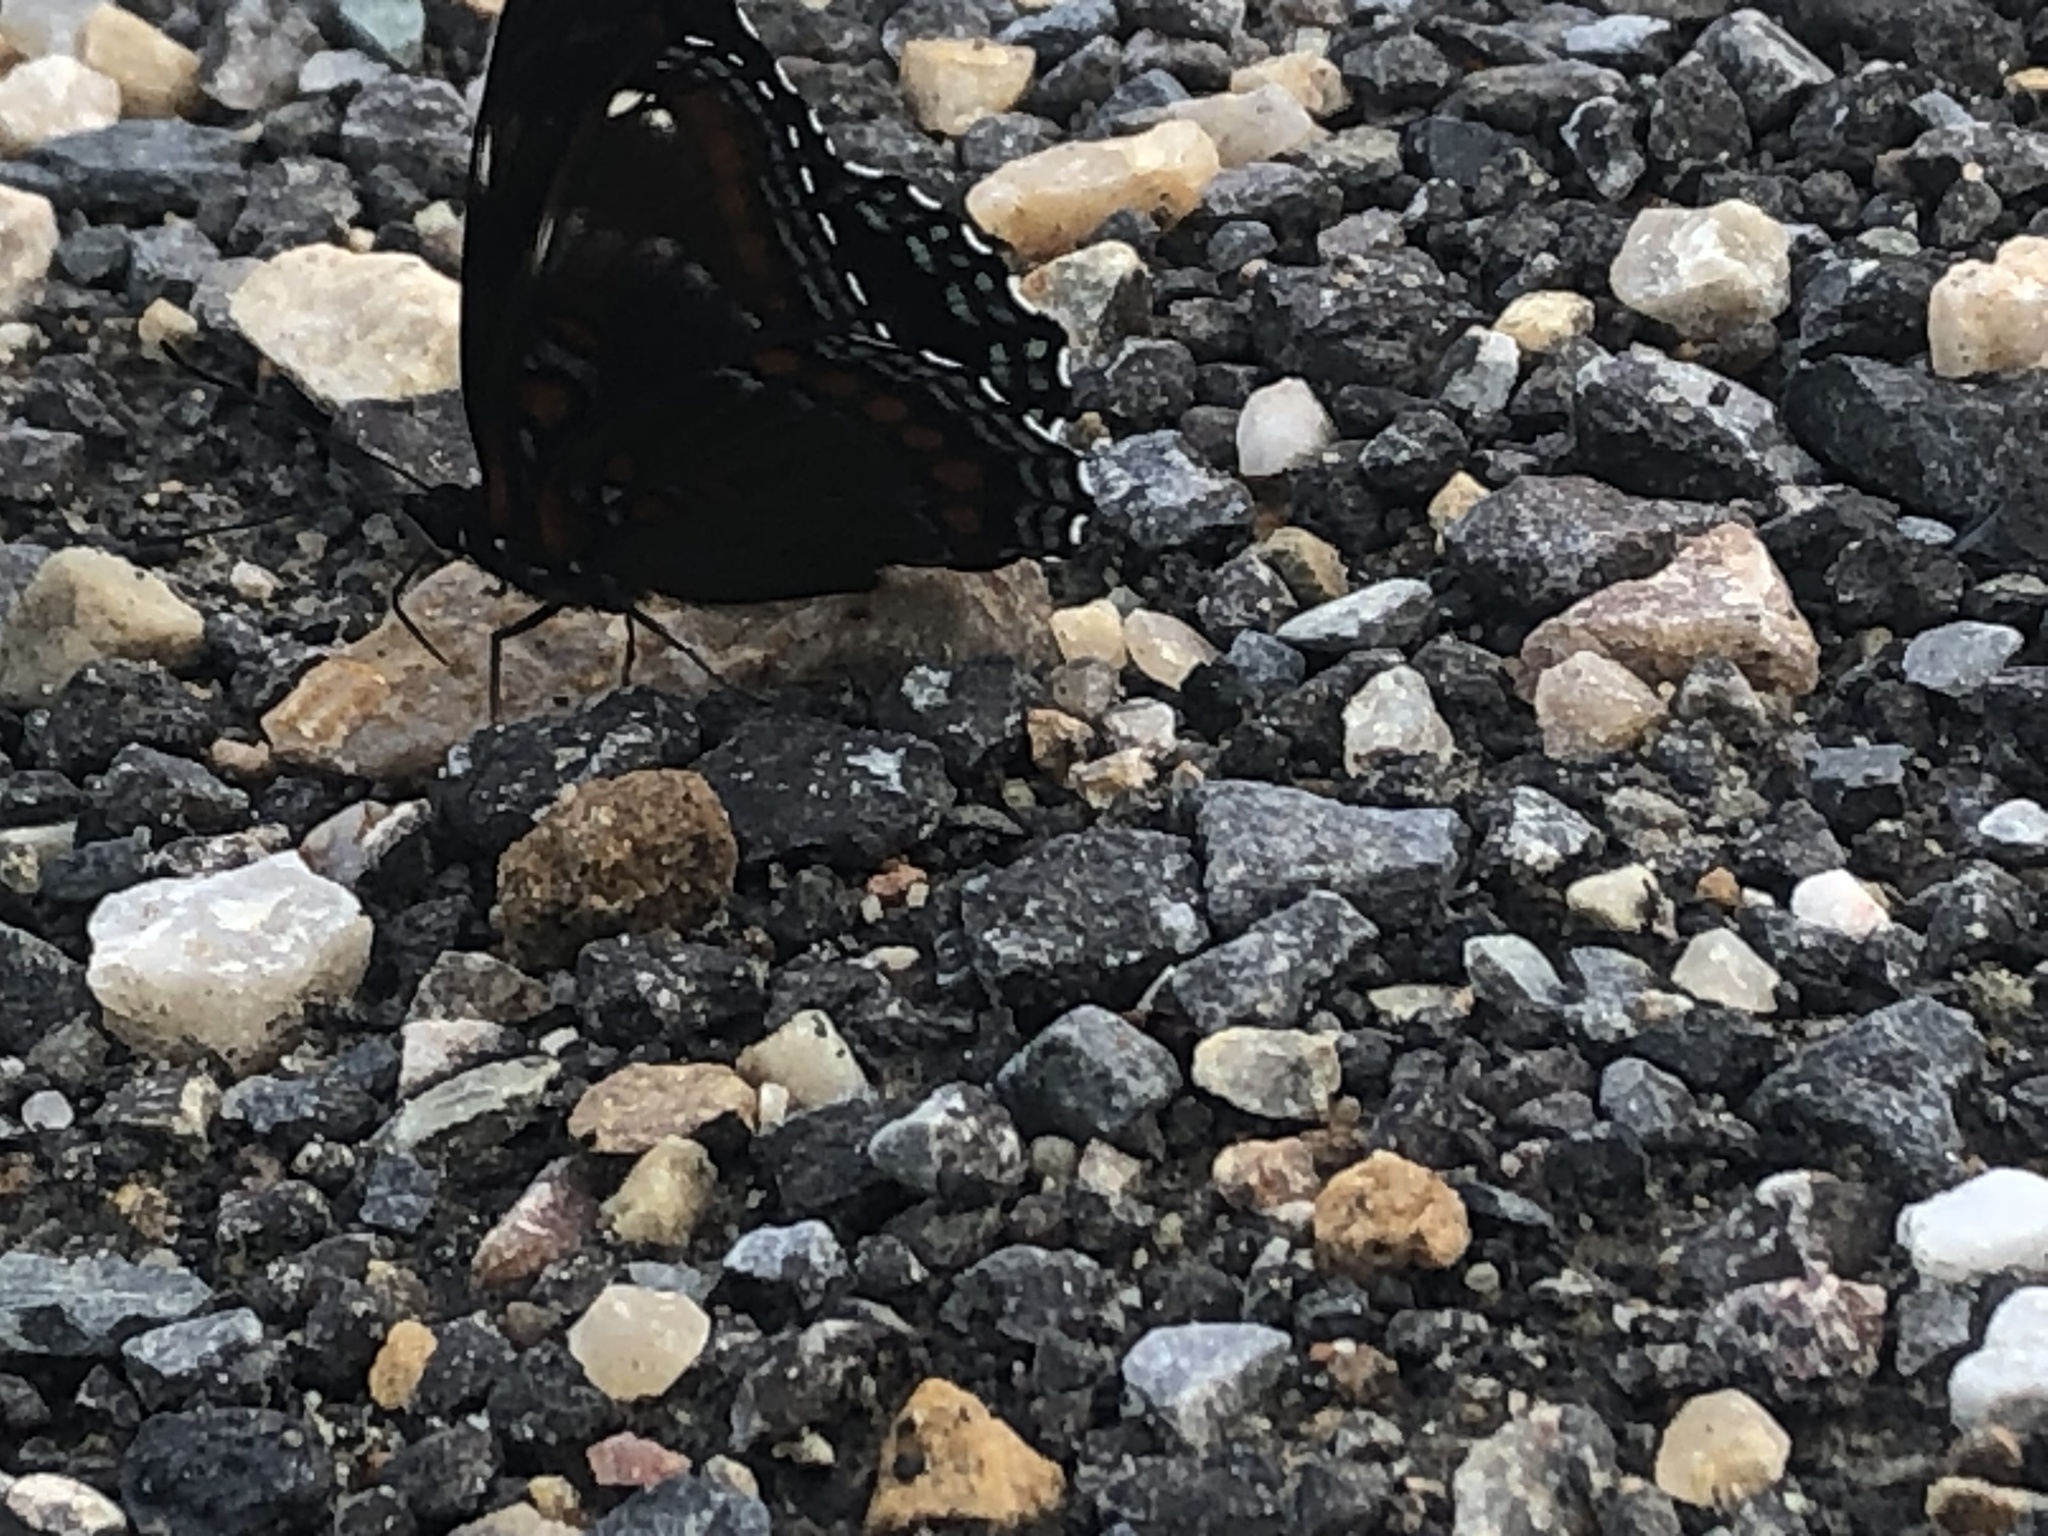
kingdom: Animalia
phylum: Arthropoda
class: Insecta
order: Lepidoptera
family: Nymphalidae
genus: Limenitis
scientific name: Limenitis astyanax
